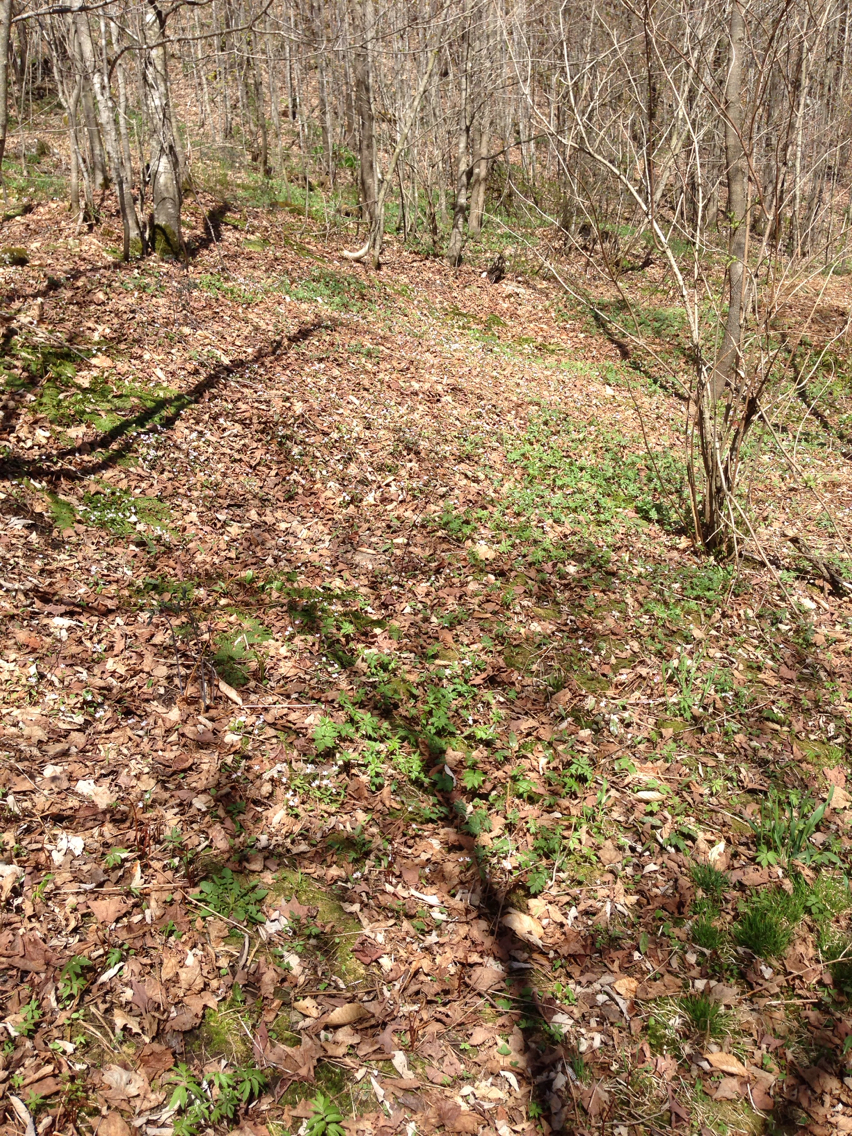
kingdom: Plantae
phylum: Tracheophyta
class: Magnoliopsida
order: Caryophyllales
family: Montiaceae
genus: Claytonia
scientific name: Claytonia caroliniana
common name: Carolina spring beauty
